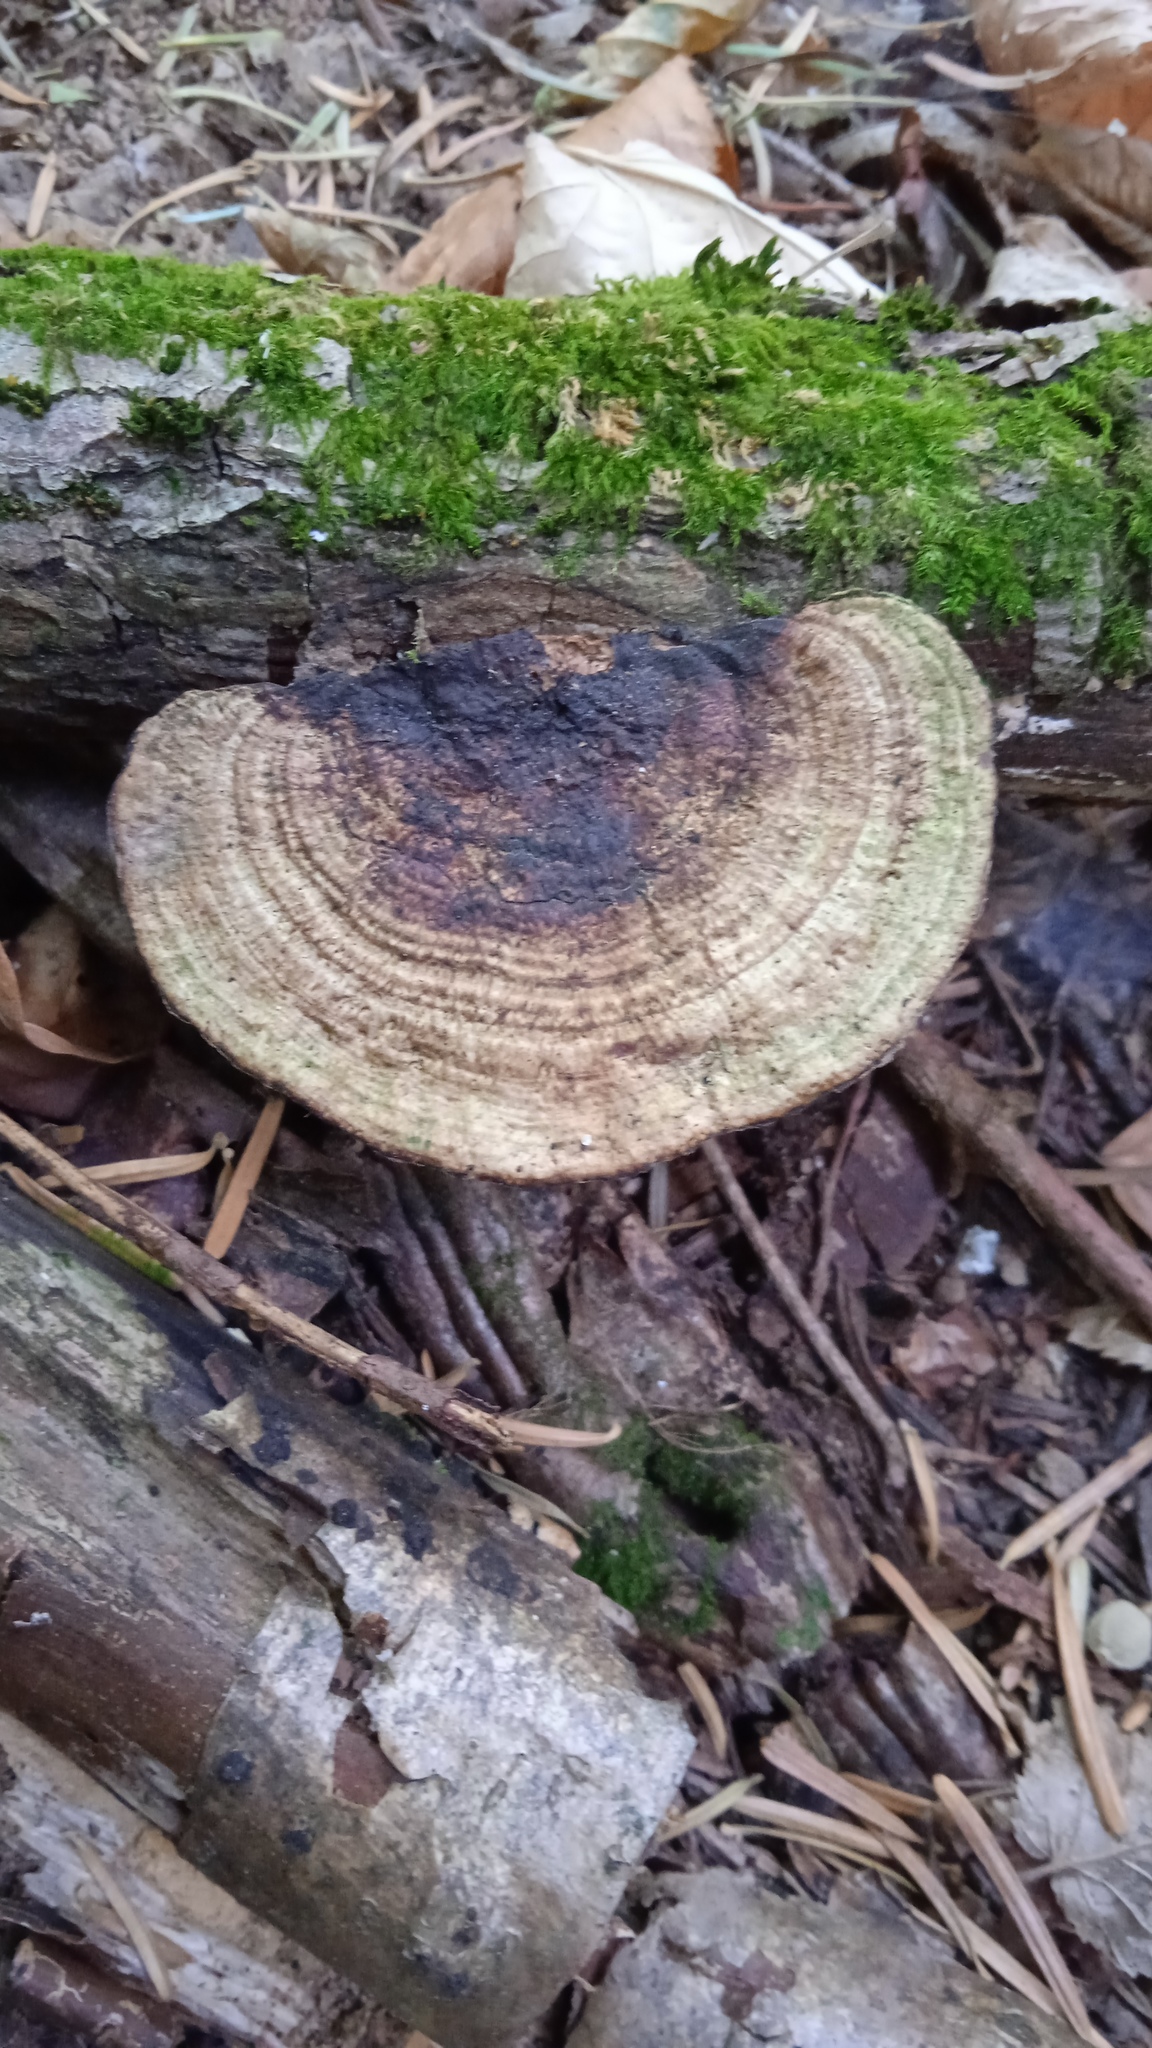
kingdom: Fungi
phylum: Basidiomycota
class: Agaricomycetes
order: Polyporales
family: Polyporaceae
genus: Daedaleopsis
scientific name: Daedaleopsis confragosa
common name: Blushing bracket
